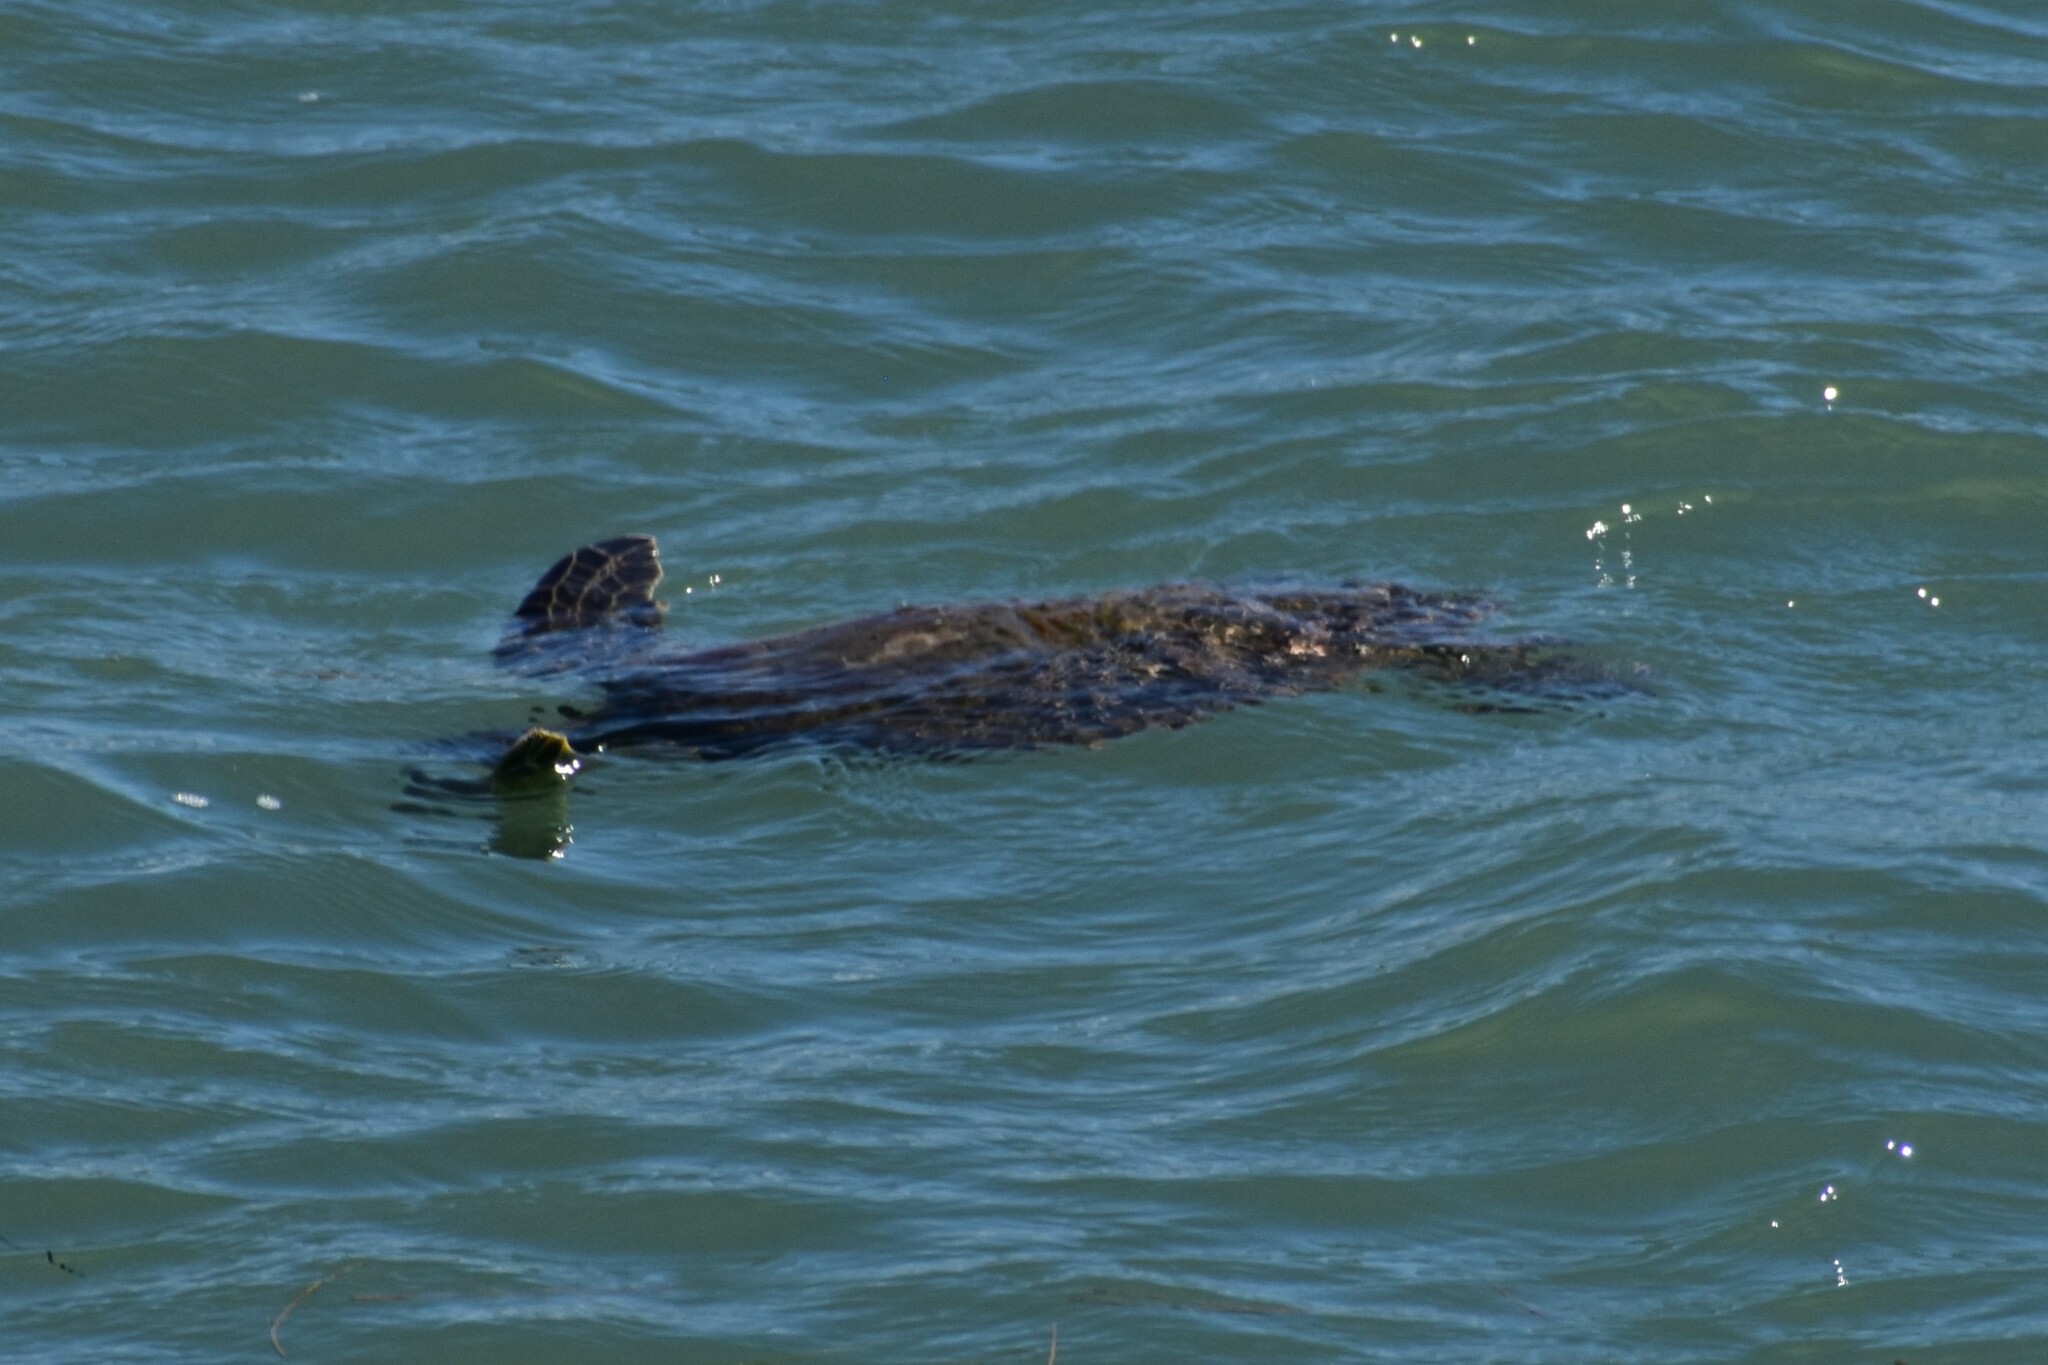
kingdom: Animalia
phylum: Chordata
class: Testudines
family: Cheloniidae
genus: Chelonia
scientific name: Chelonia mydas
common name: Green turtle
